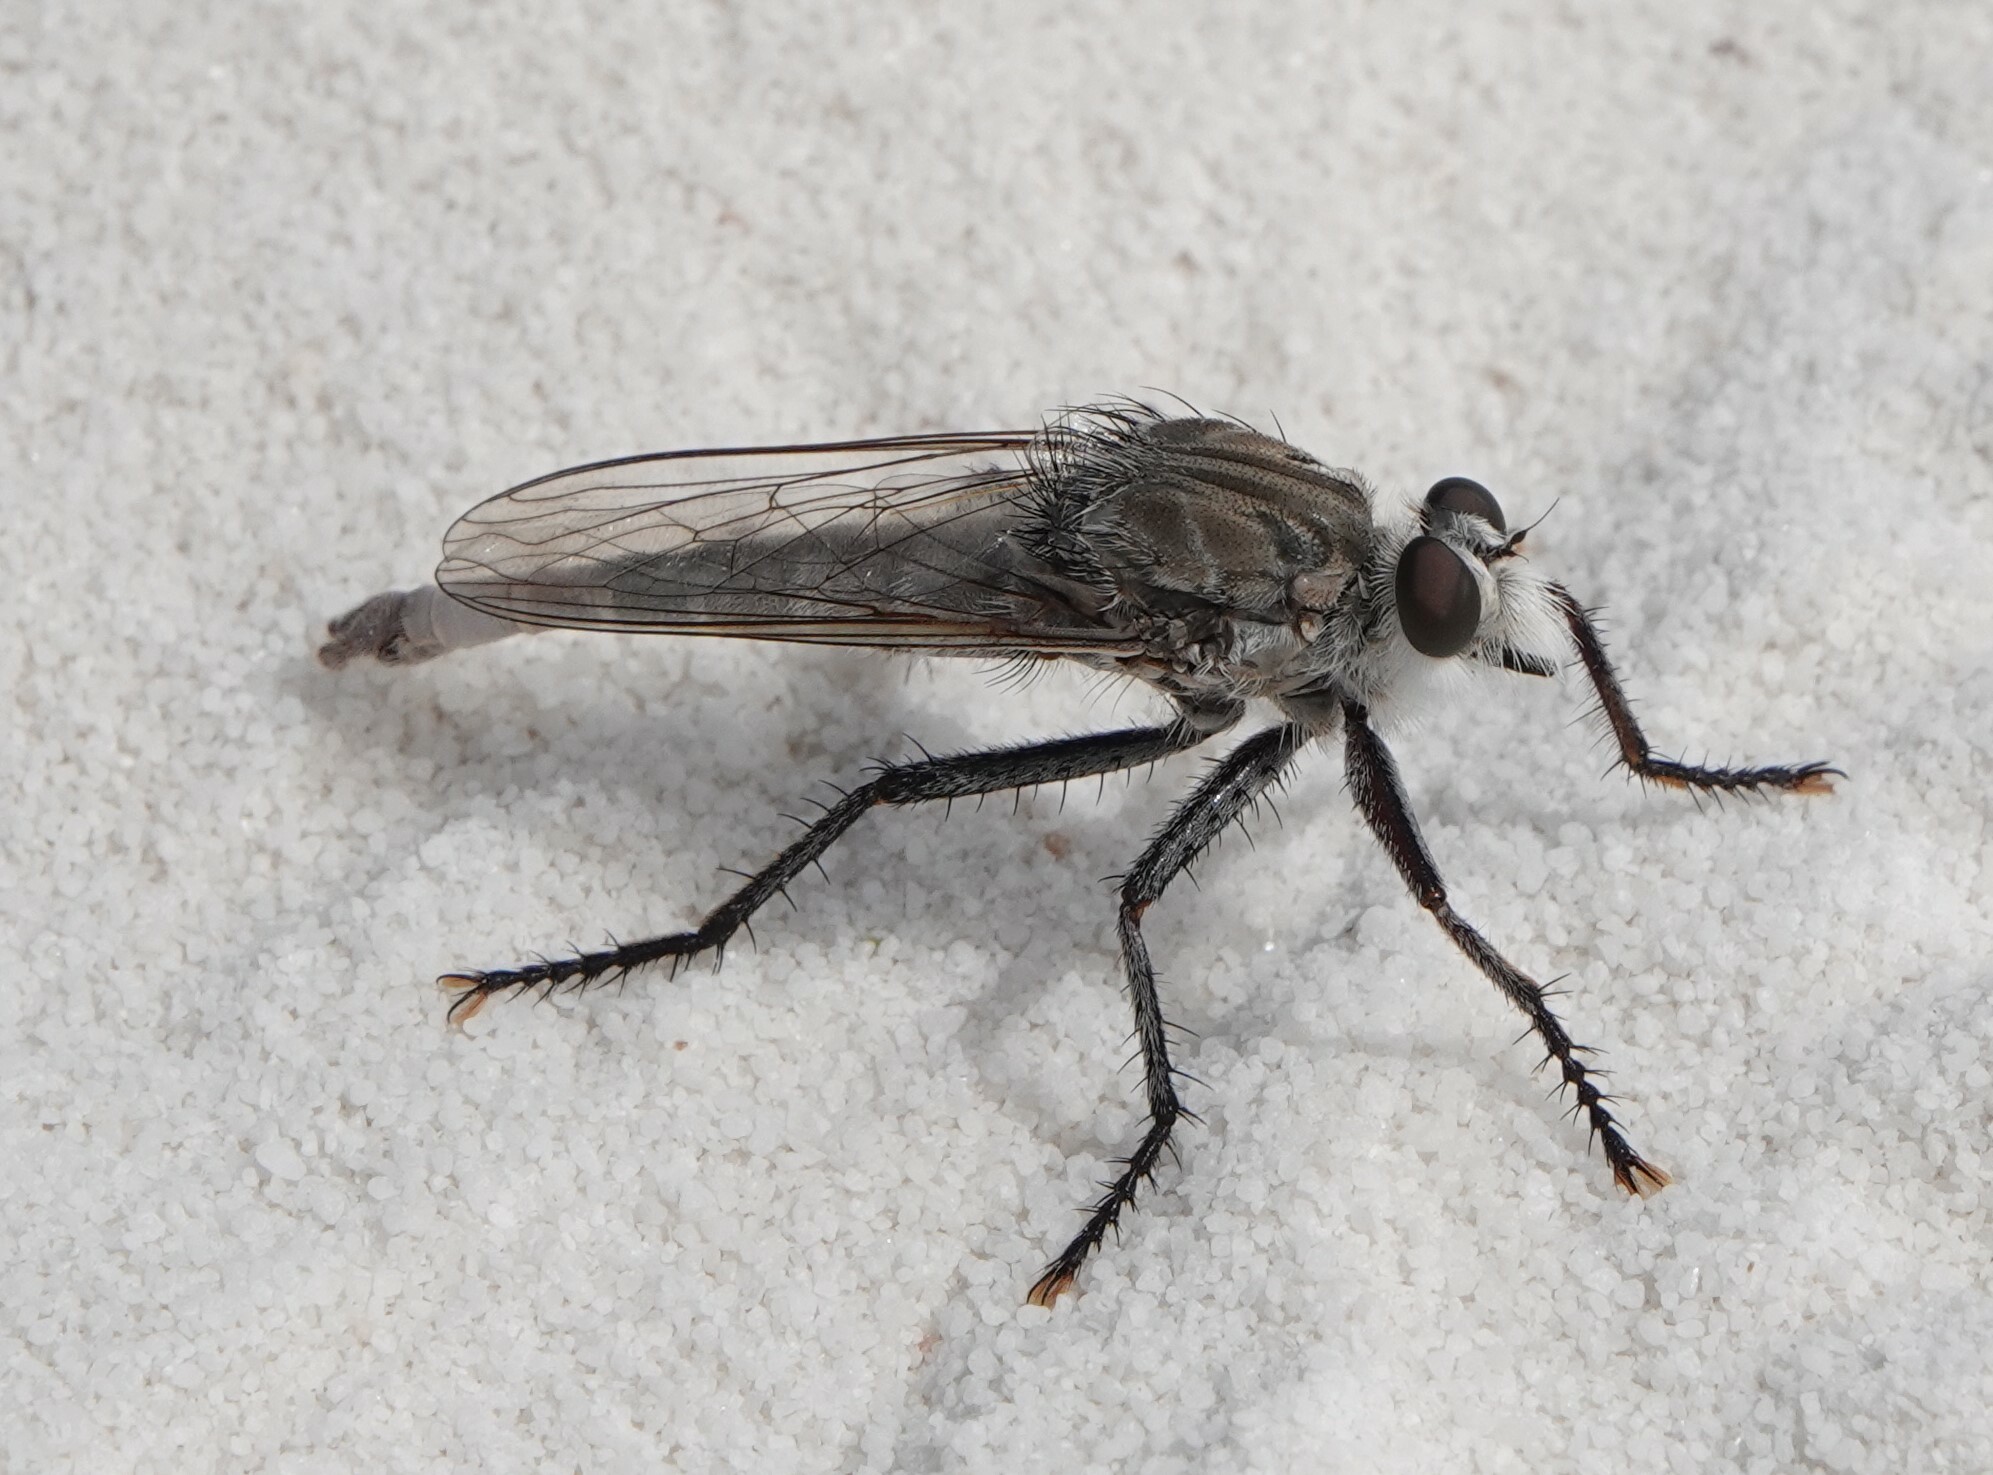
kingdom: Animalia
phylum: Arthropoda
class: Insecta
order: Diptera
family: Asilidae
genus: Proctacanthus
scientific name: Proctacanthus nearno
